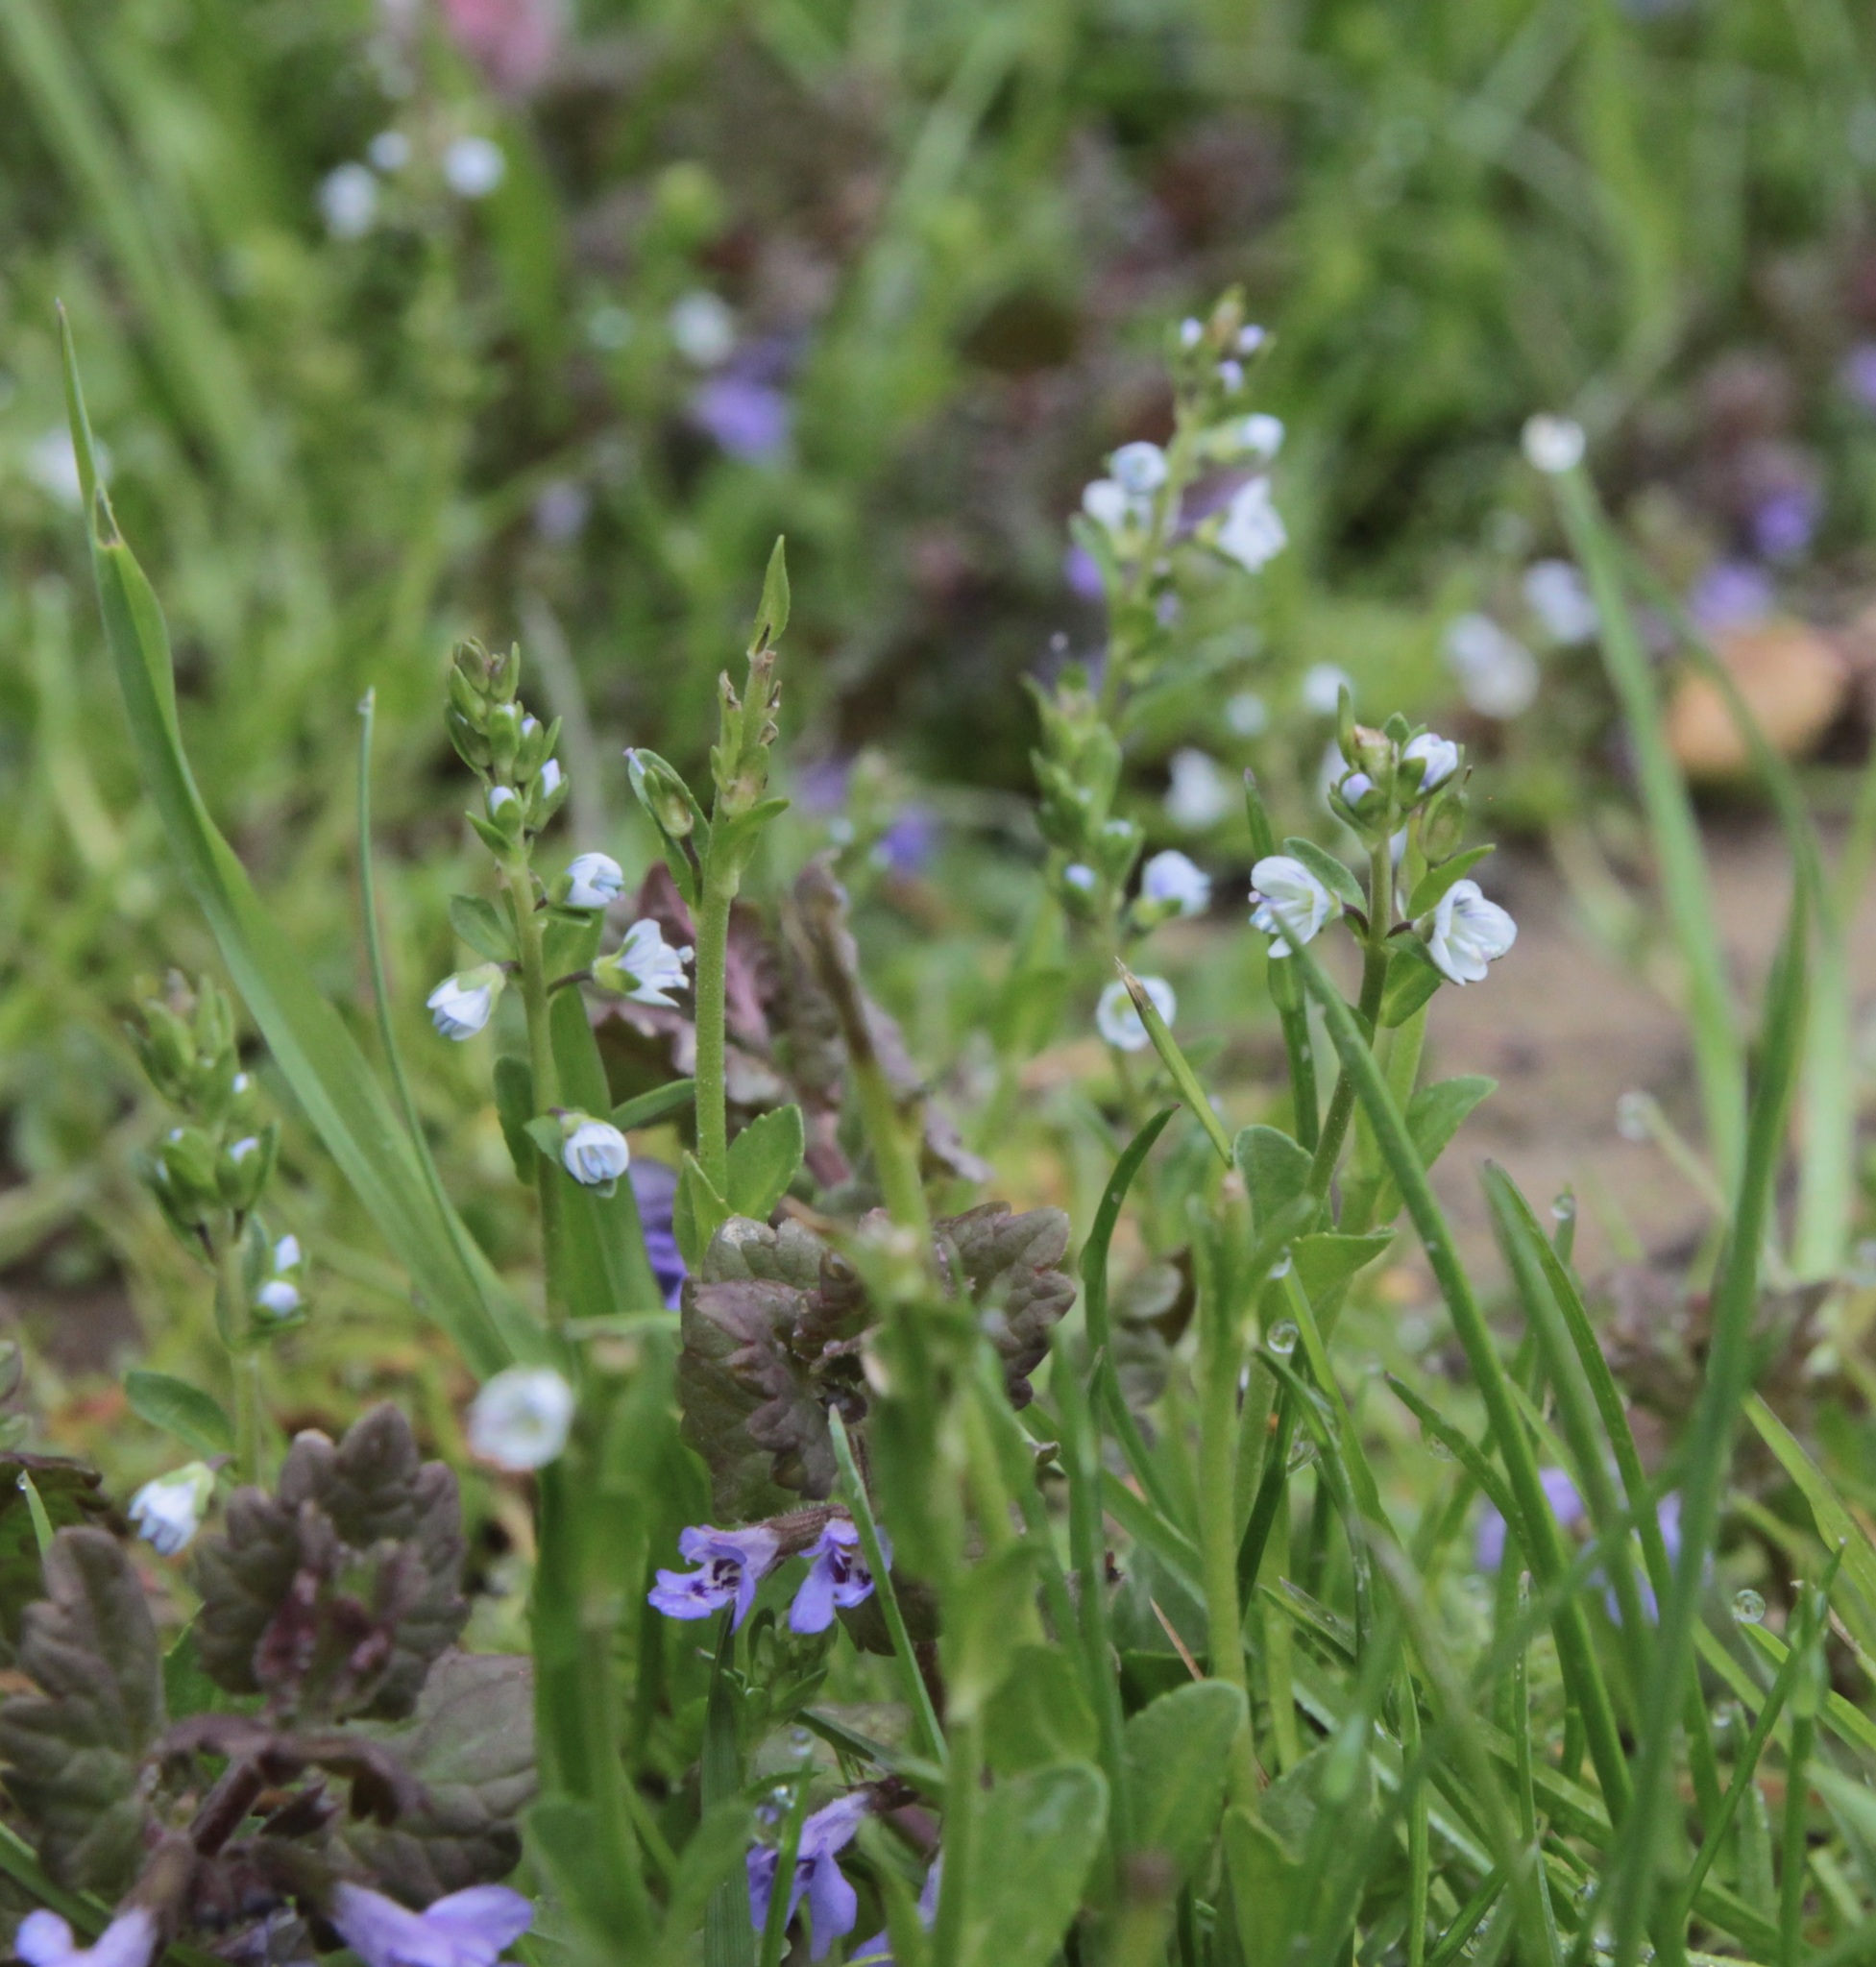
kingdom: Plantae
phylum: Tracheophyta
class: Magnoliopsida
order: Lamiales
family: Plantaginaceae
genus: Veronica
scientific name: Veronica serpyllifolia
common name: Thyme-leaved speedwell
